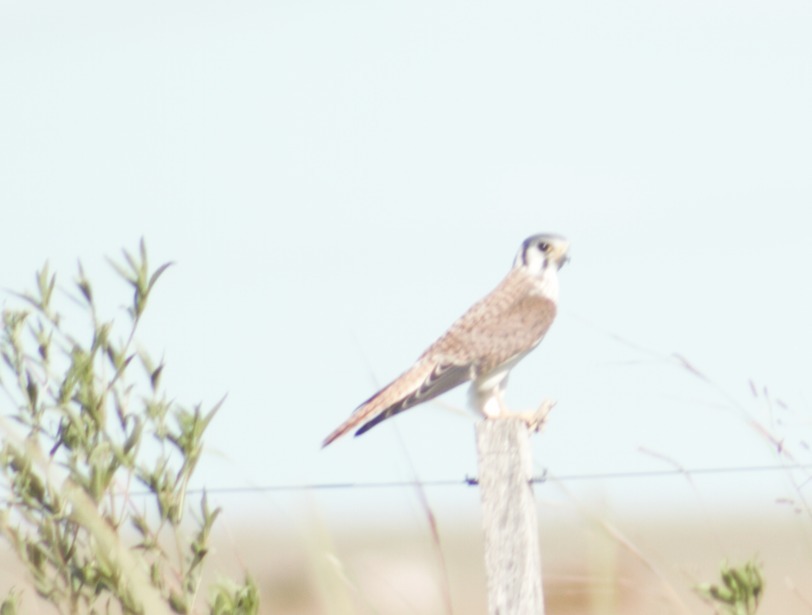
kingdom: Animalia
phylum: Chordata
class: Aves
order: Falconiformes
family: Falconidae
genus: Falco
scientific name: Falco sparverius
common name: American kestrel
